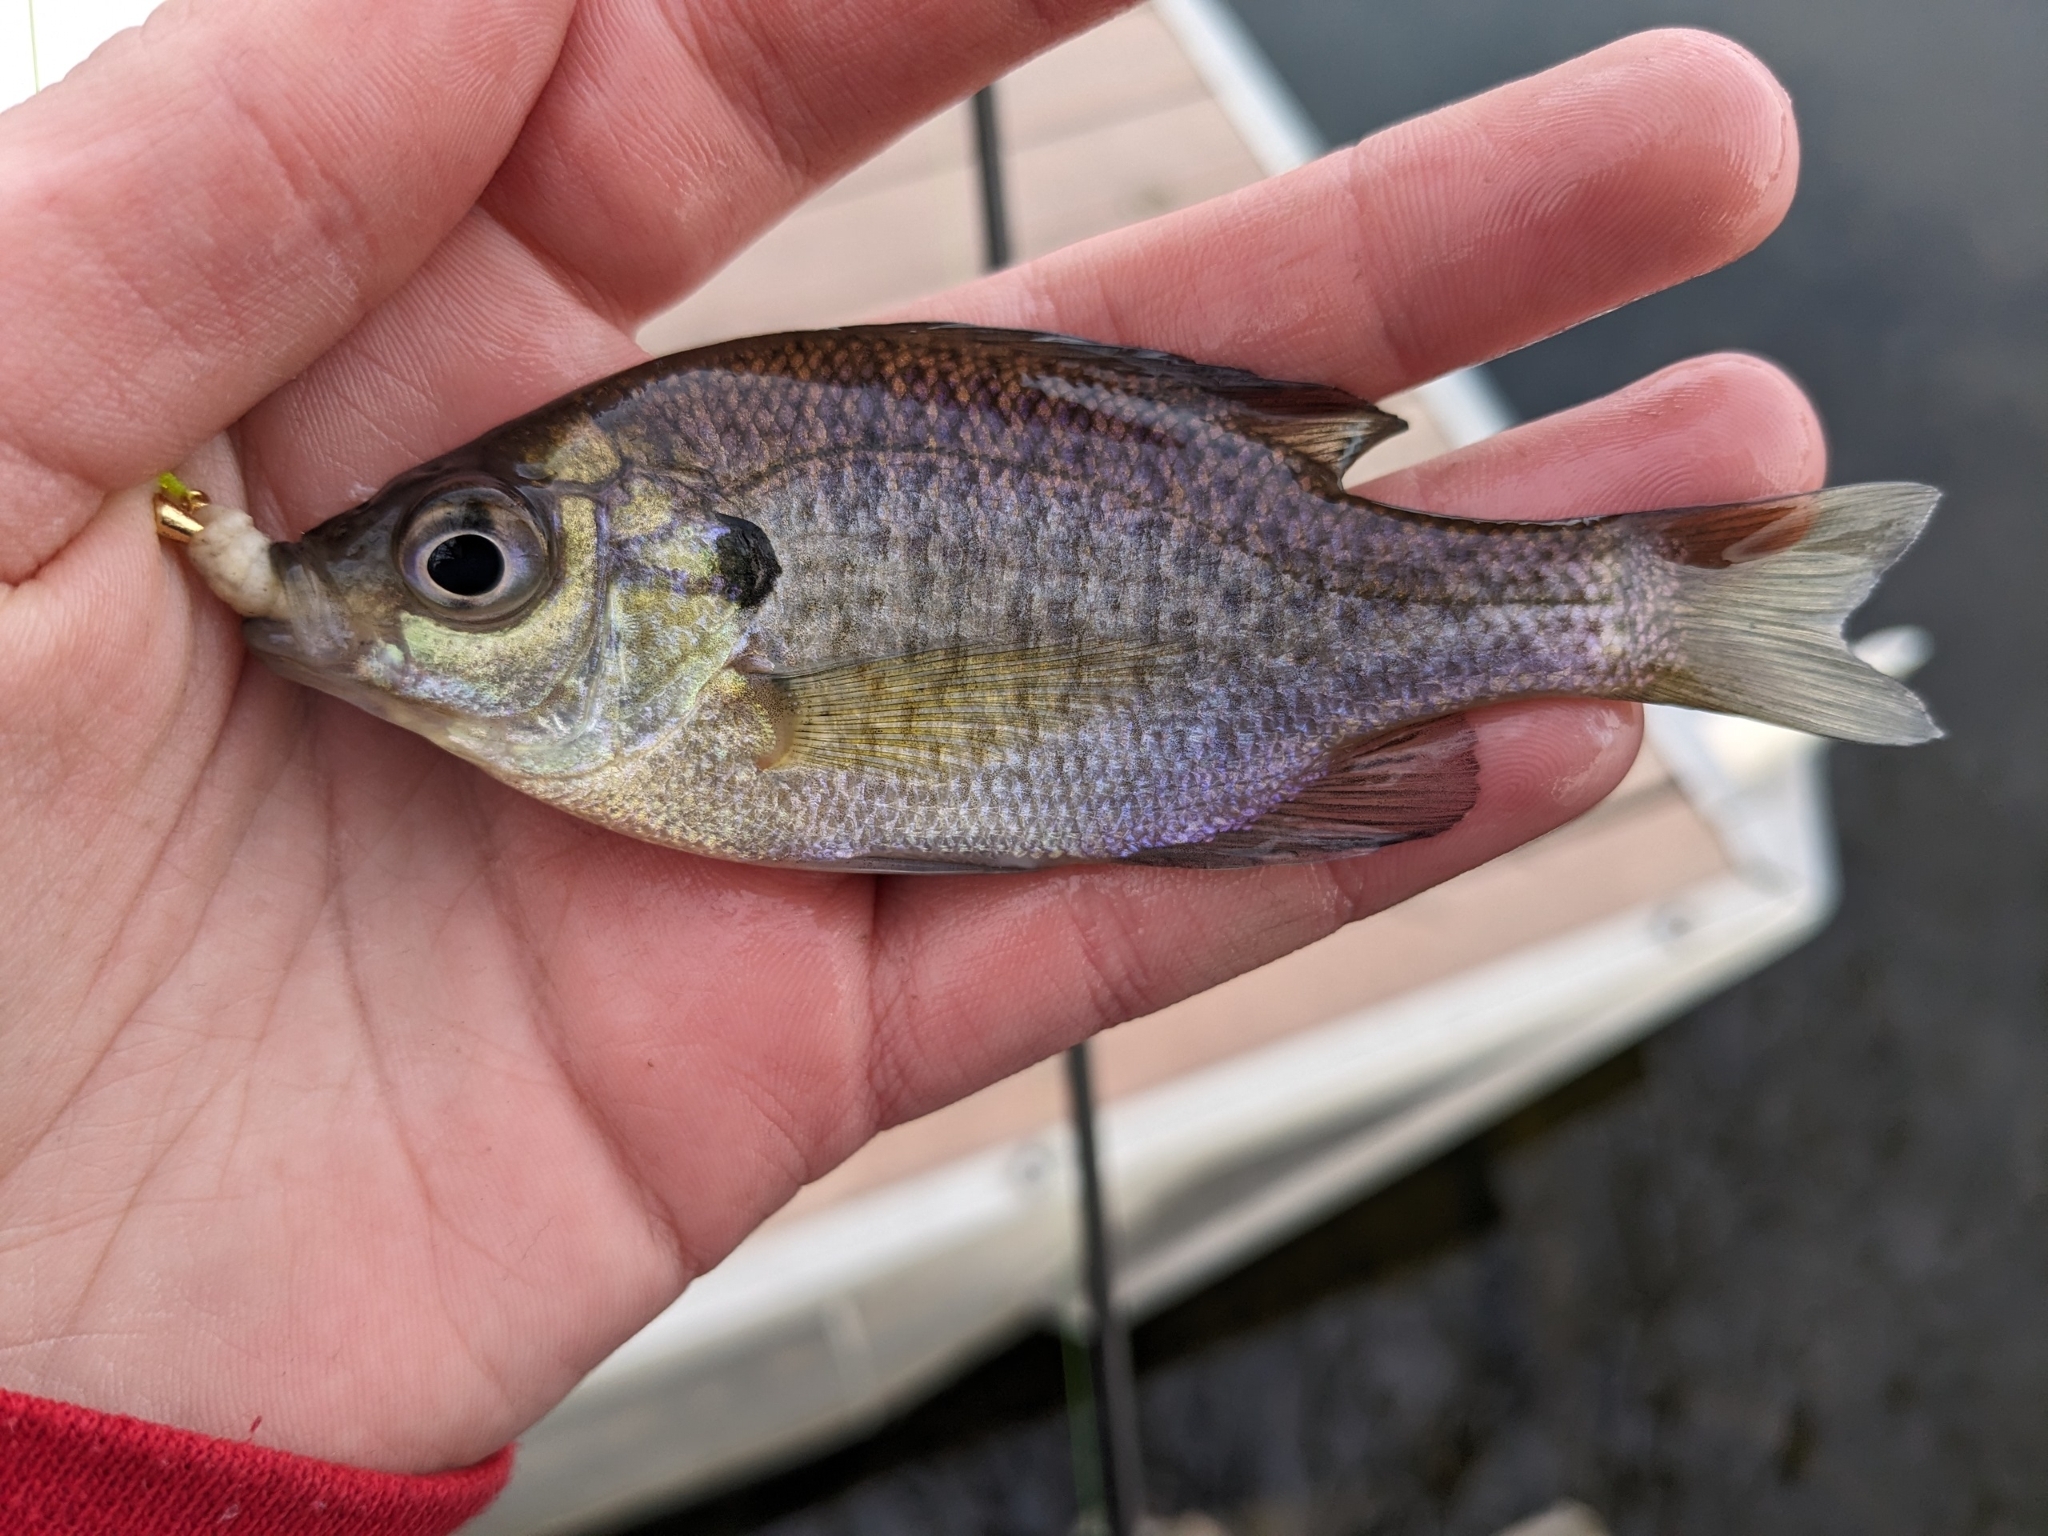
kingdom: Animalia
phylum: Chordata
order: Perciformes
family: Centrarchidae
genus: Lepomis
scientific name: Lepomis macrochirus
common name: Bluegill
